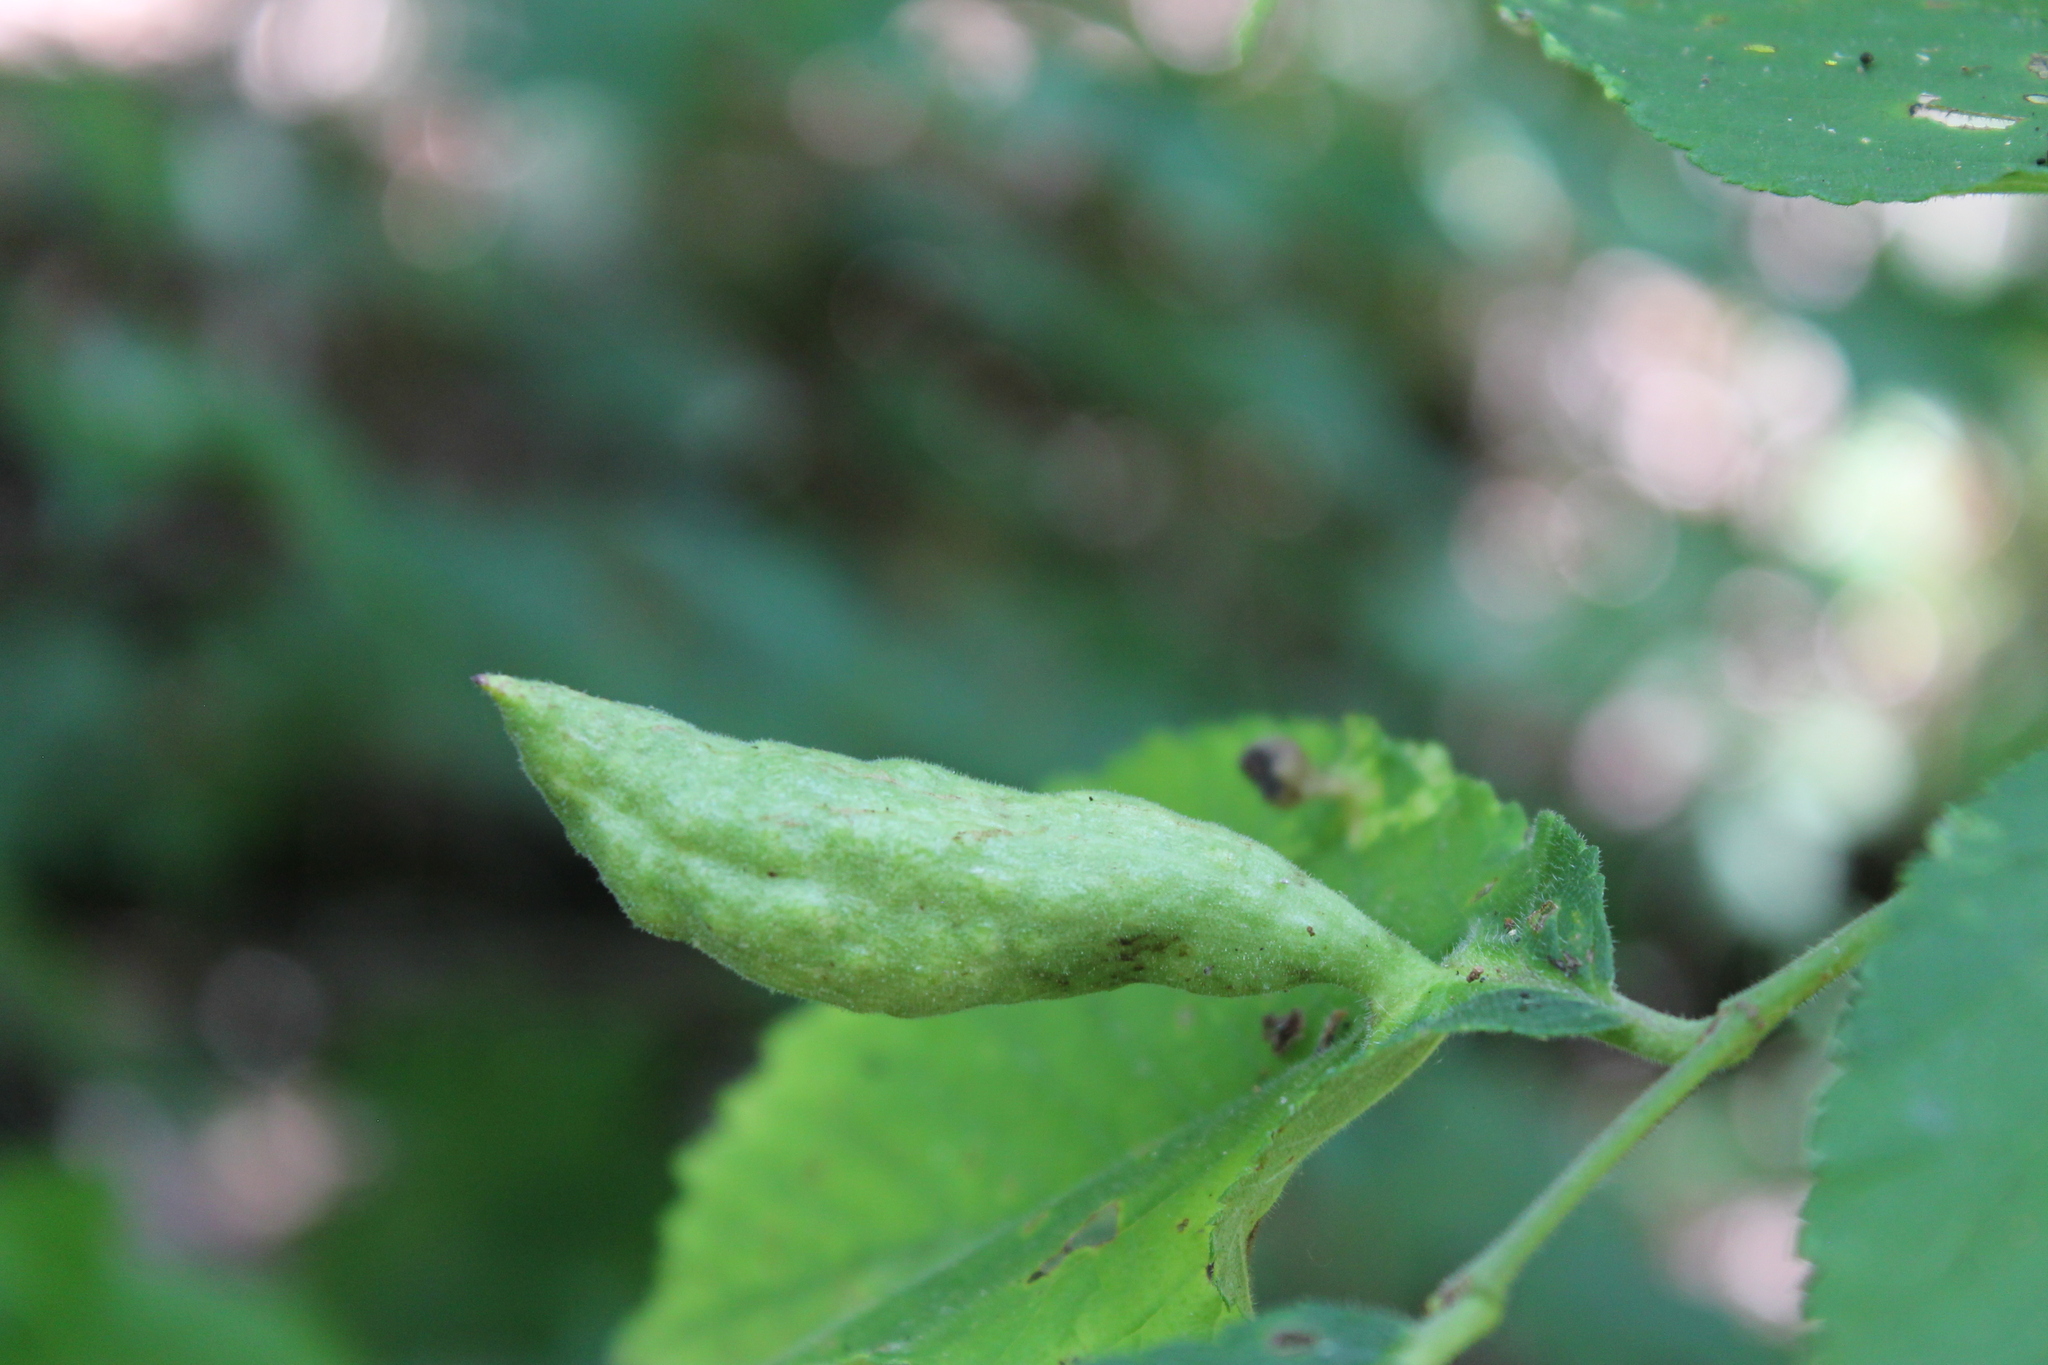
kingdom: Animalia
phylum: Arthropoda
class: Insecta
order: Hemiptera
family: Aphididae
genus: Kaltenbachiella
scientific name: Kaltenbachiella ulmifusa
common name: Elm pouchgall aphid
